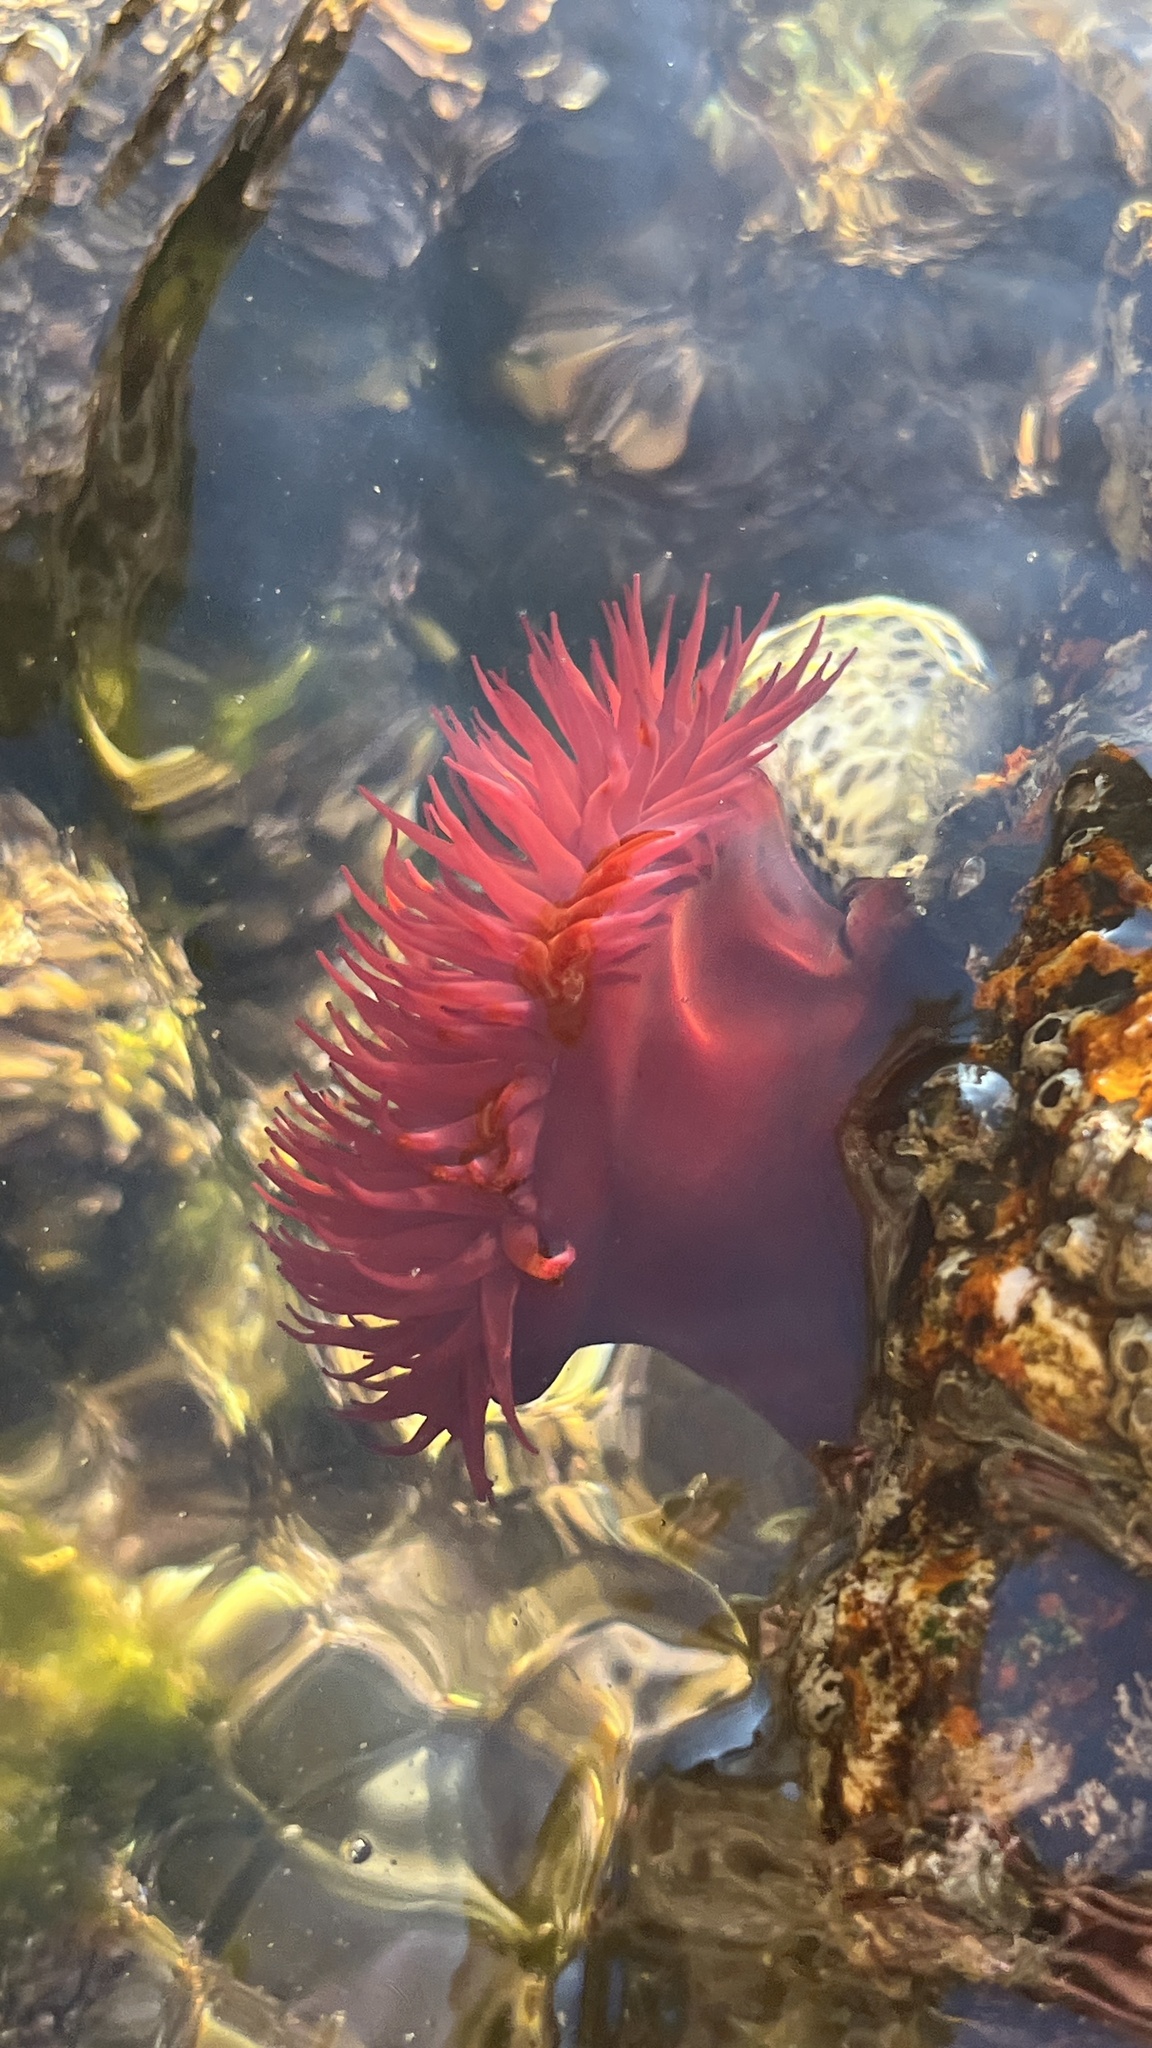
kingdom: Animalia
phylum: Cnidaria
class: Anthozoa
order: Actiniaria
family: Actiniidae
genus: Actinia
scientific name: Actinia mediterranea
